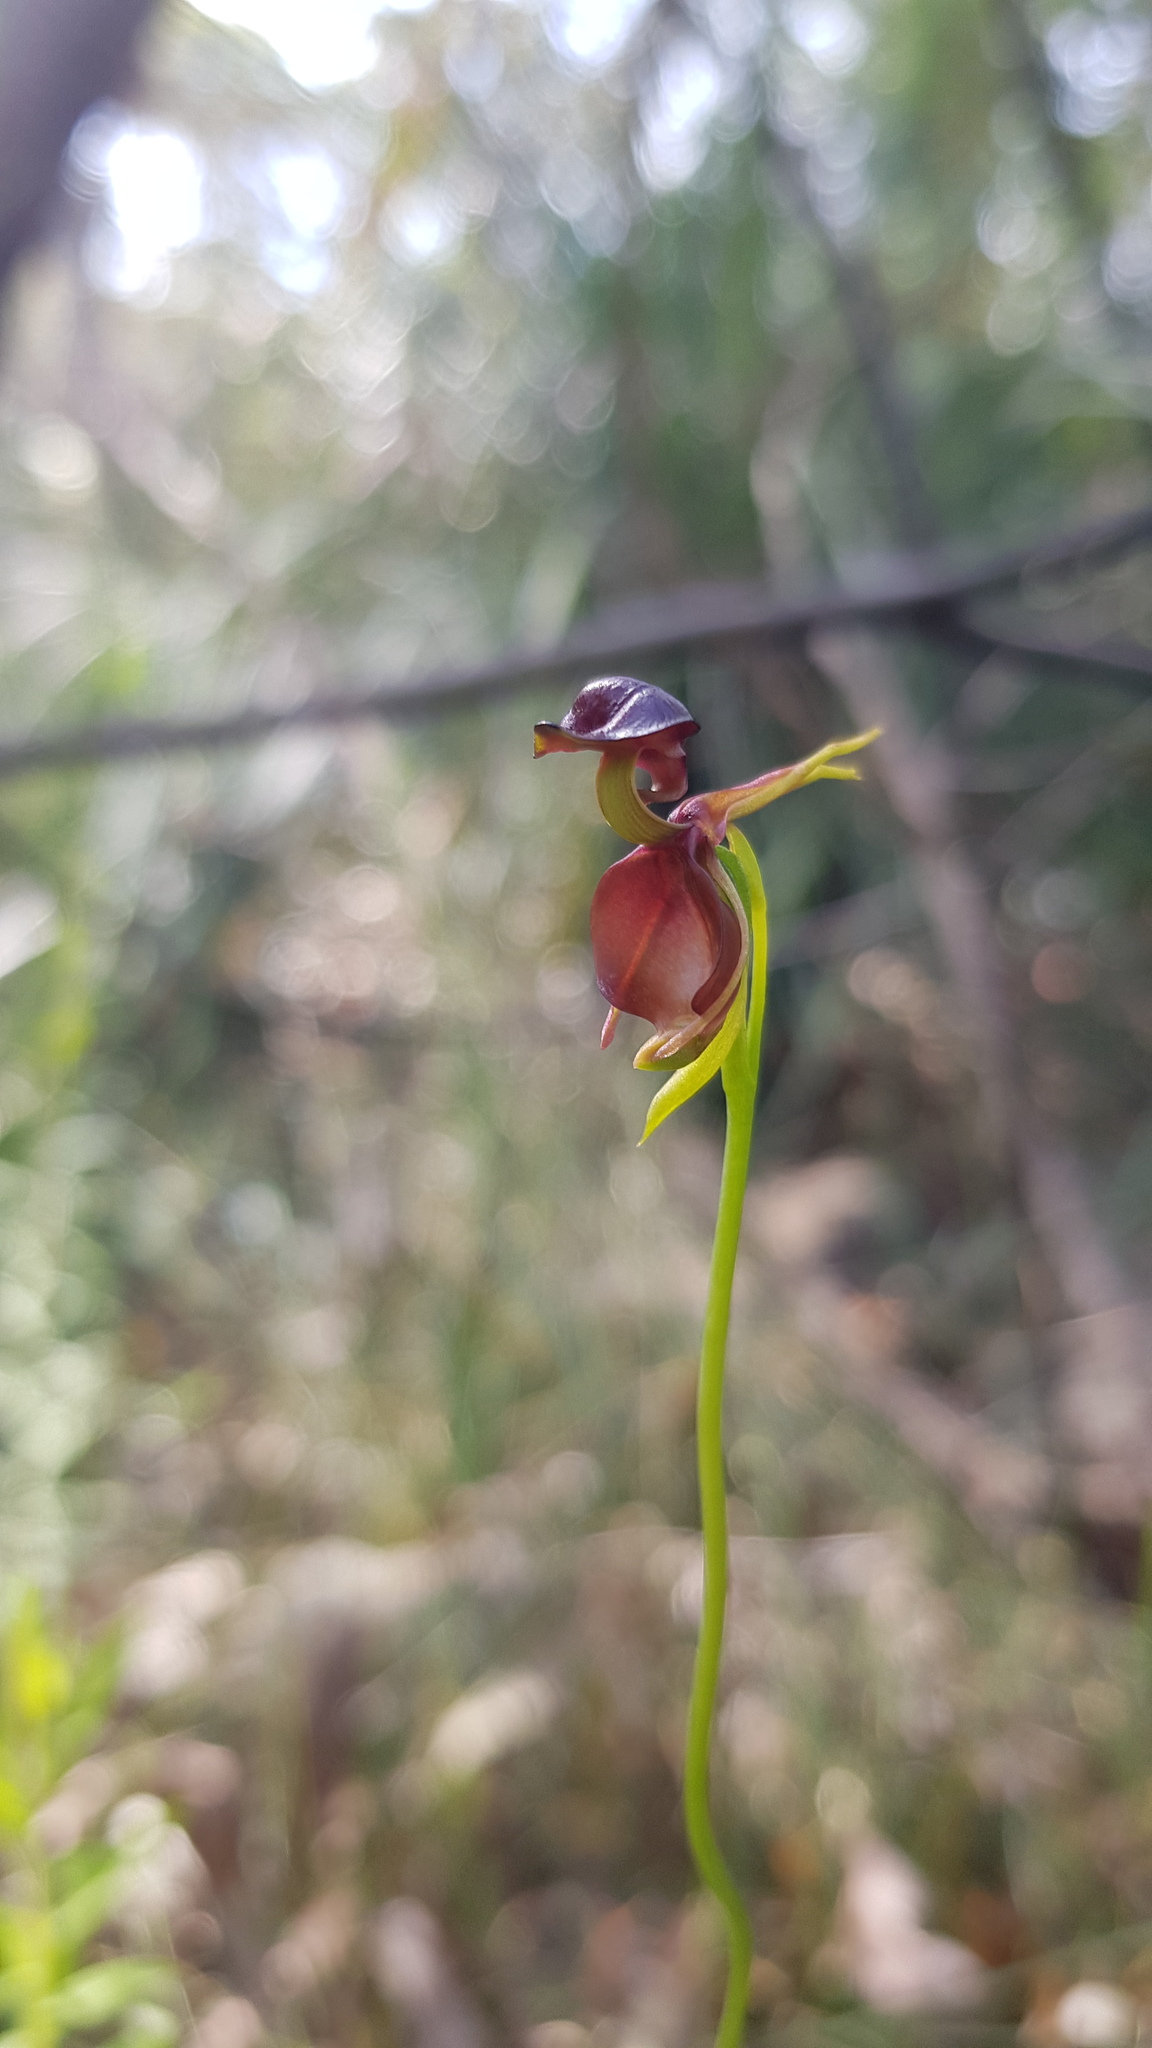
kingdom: Plantae
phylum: Tracheophyta
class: Liliopsida
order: Asparagales
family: Orchidaceae
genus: Caleana
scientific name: Caleana major
